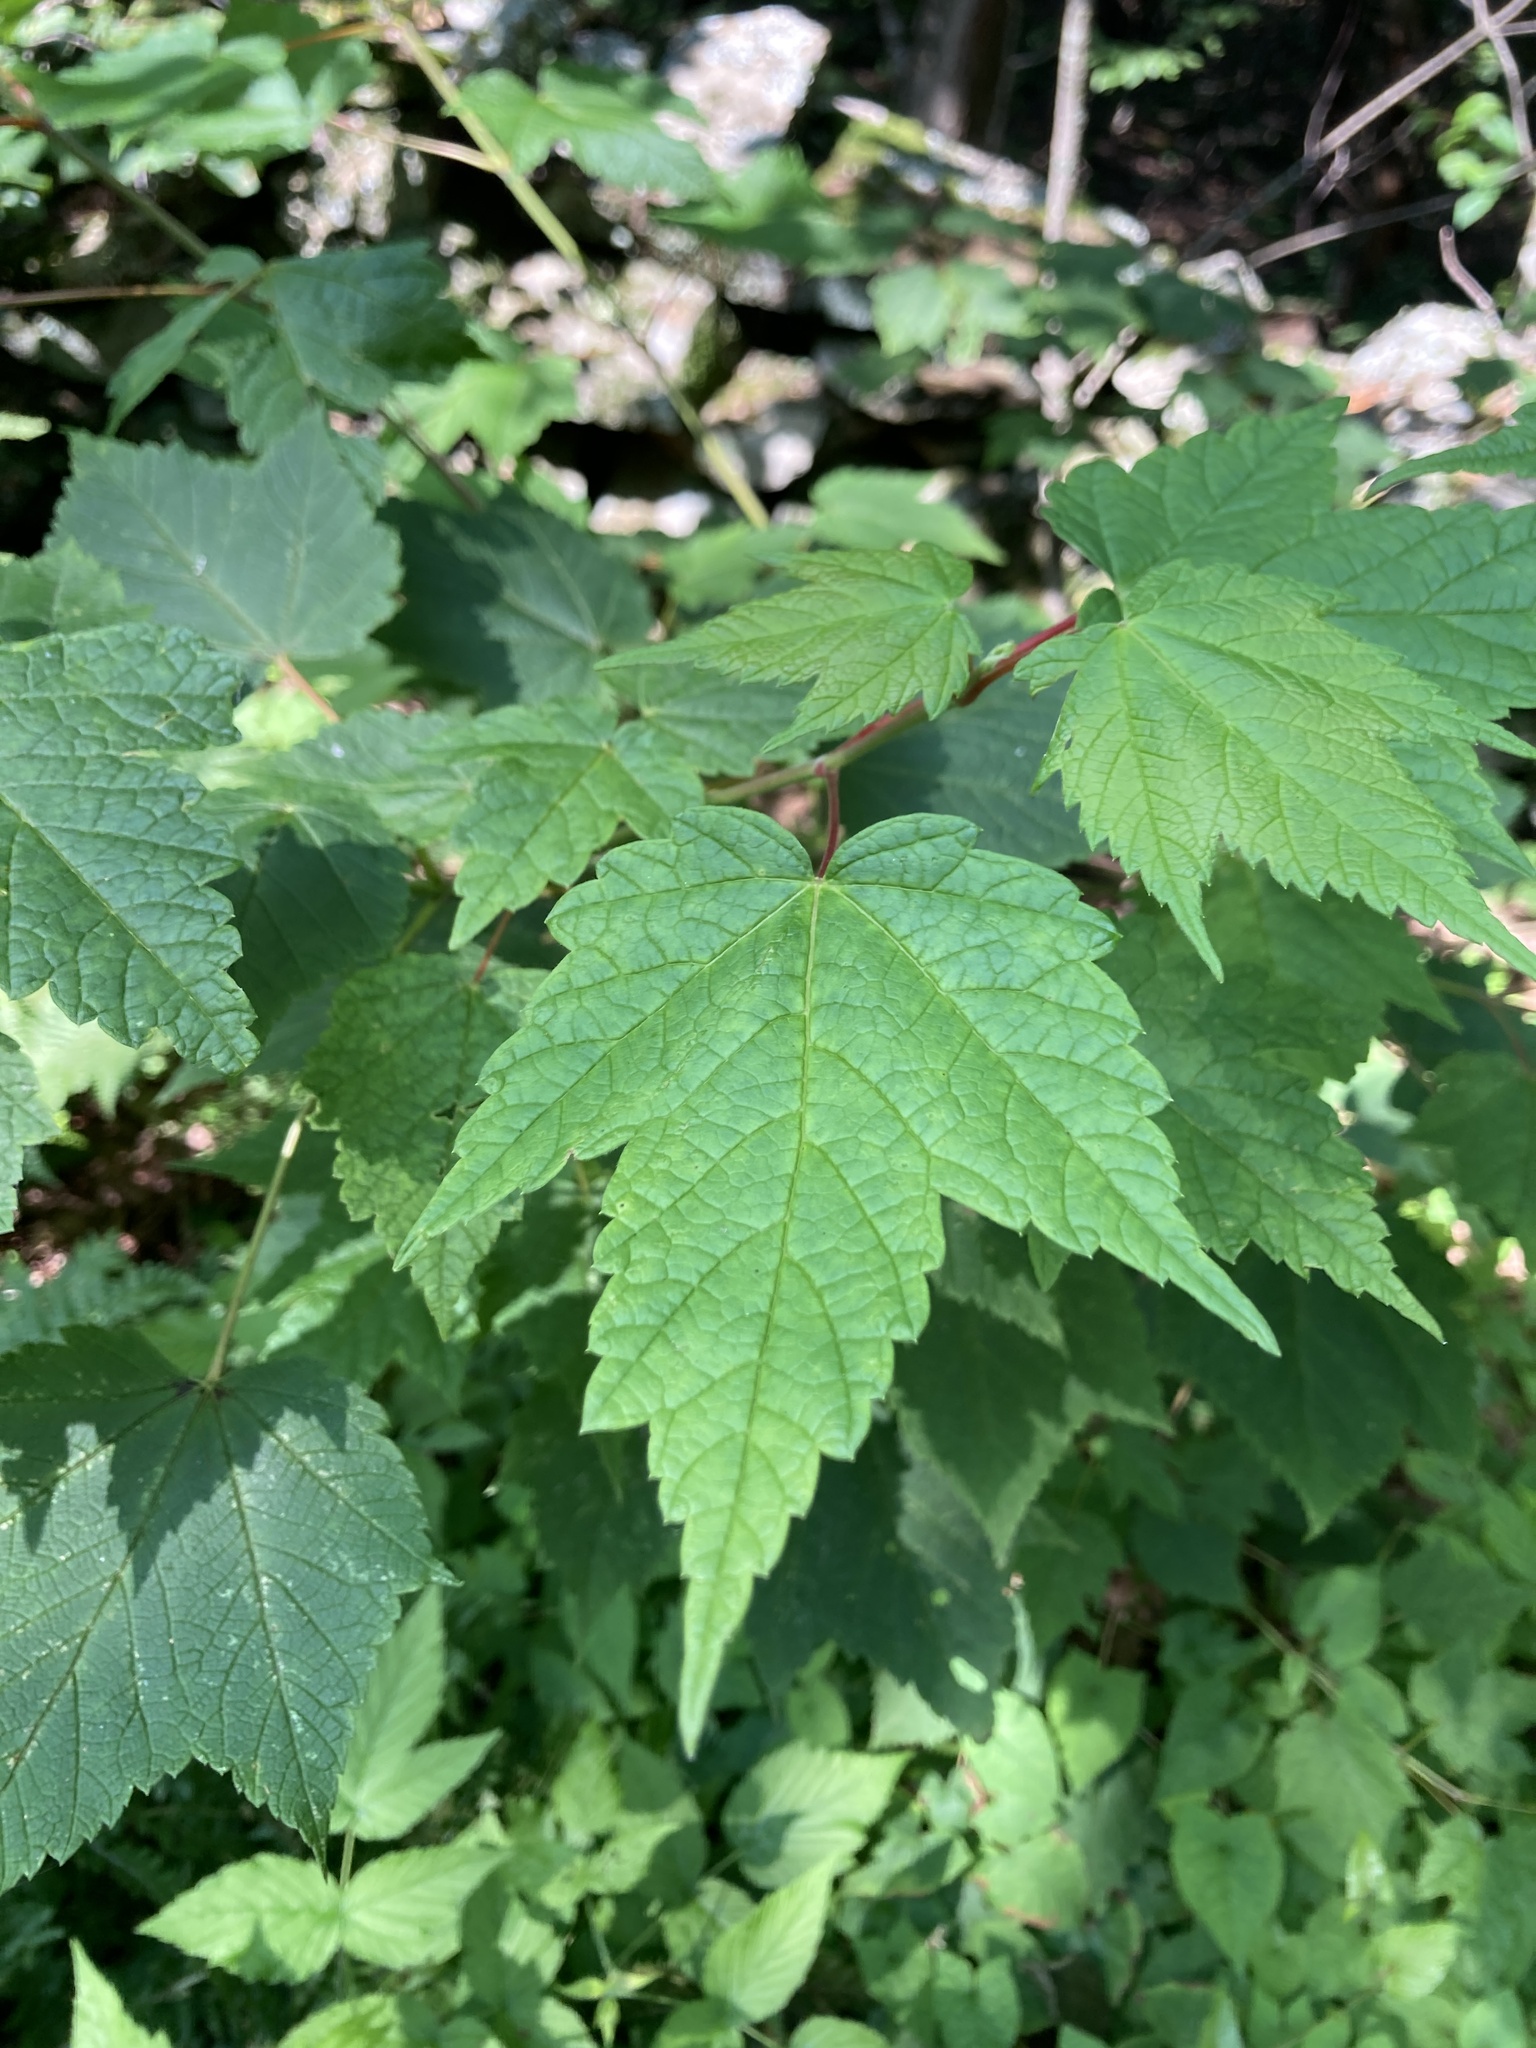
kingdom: Plantae
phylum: Tracheophyta
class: Magnoliopsida
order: Sapindales
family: Sapindaceae
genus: Acer
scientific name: Acer spicatum
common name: Mountain maple
